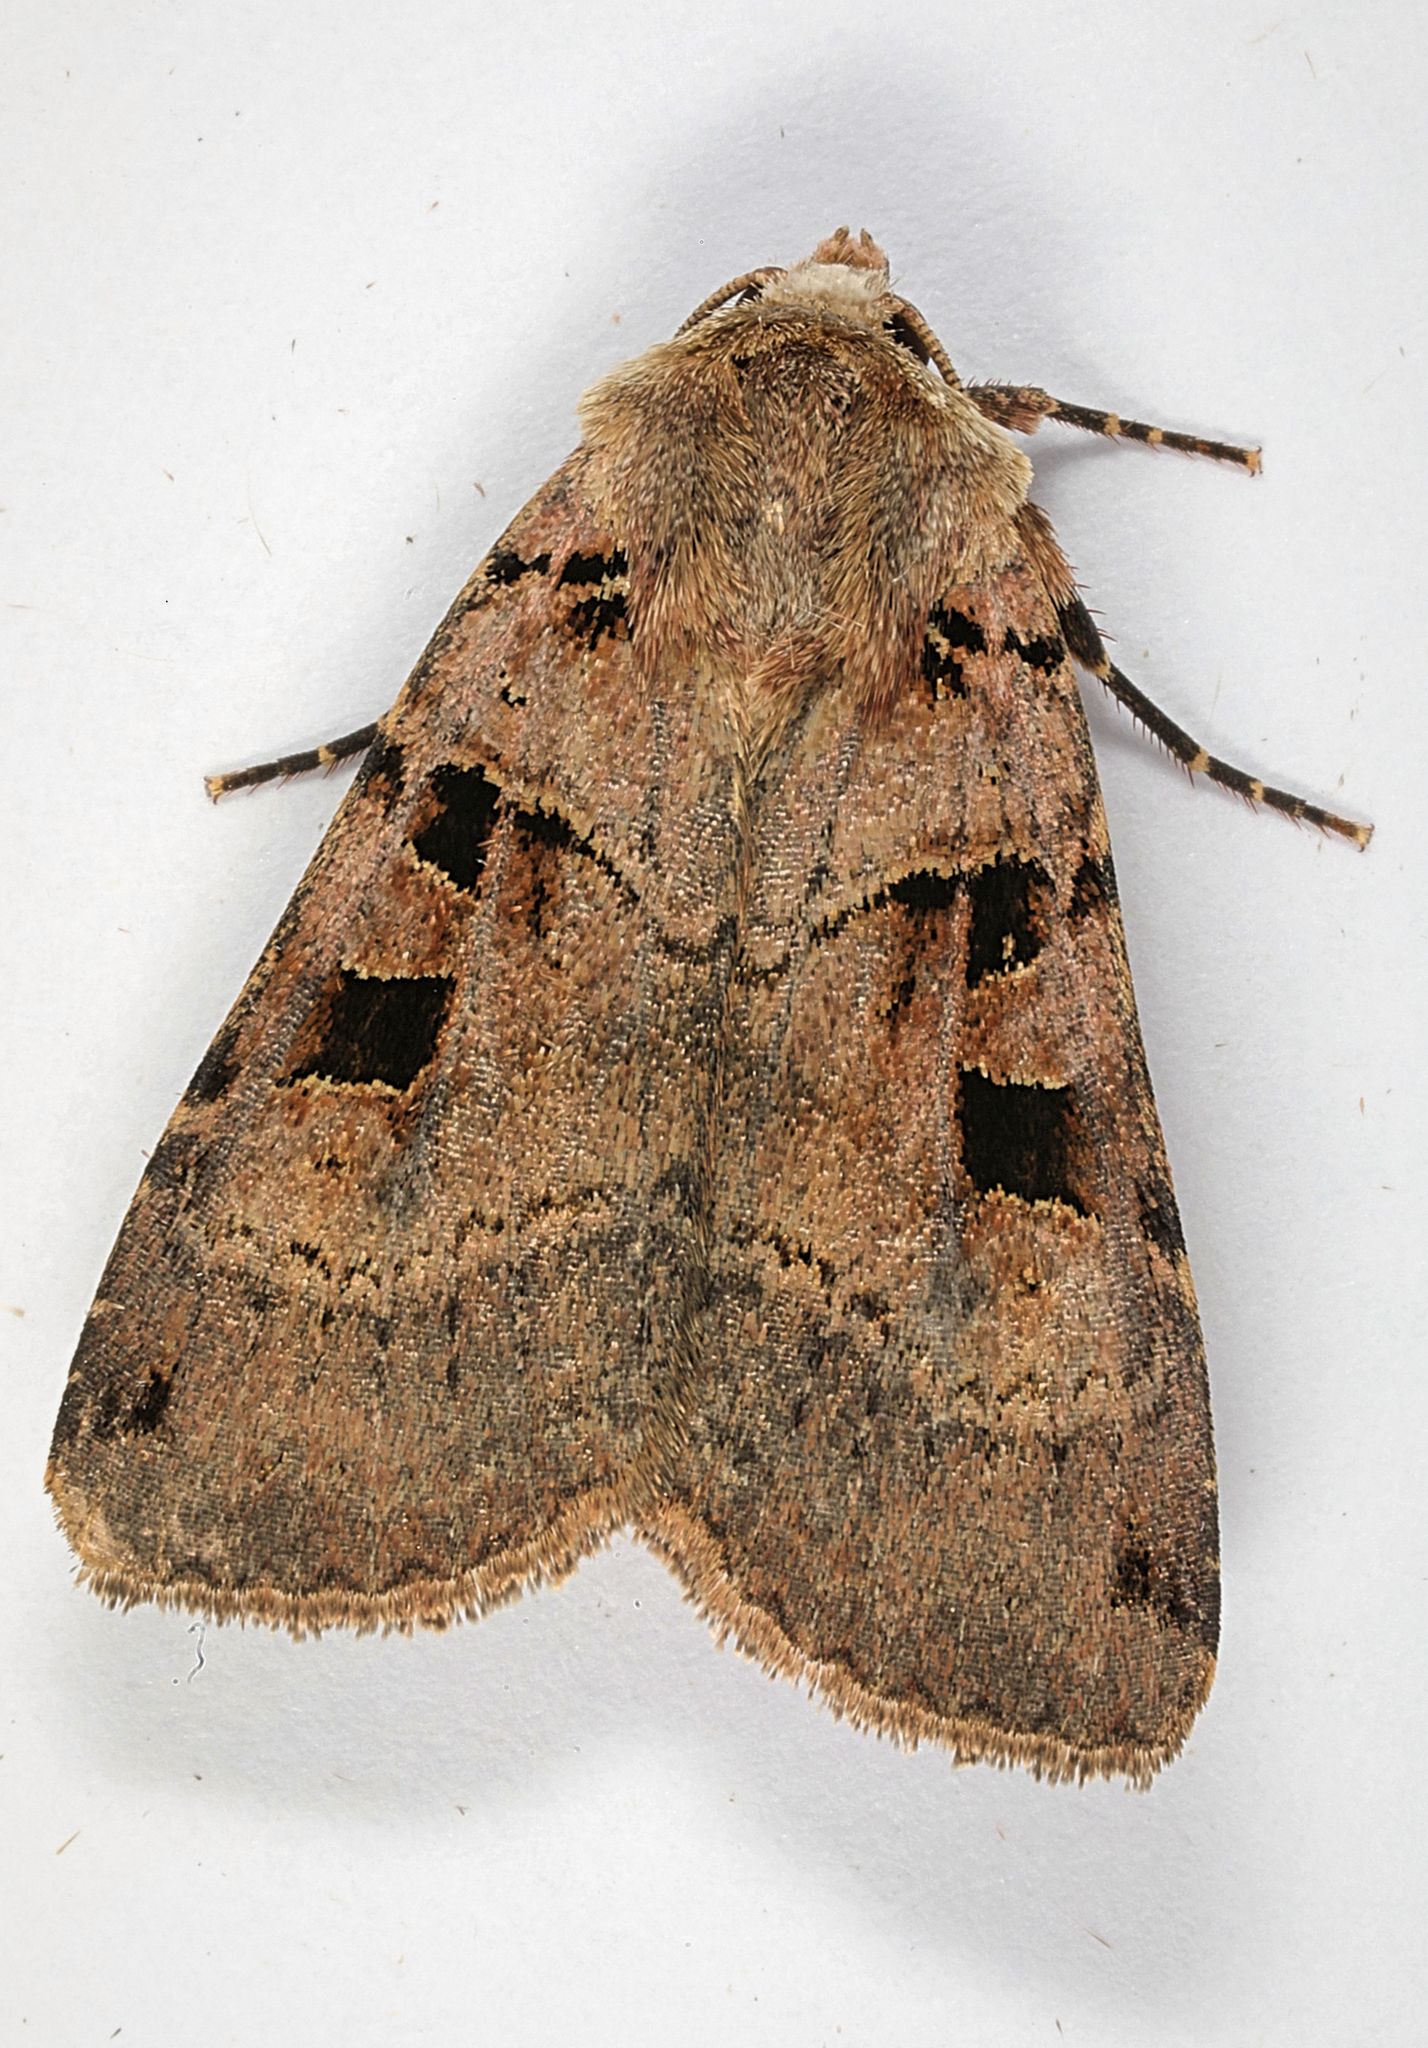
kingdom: Animalia
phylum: Arthropoda
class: Insecta
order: Lepidoptera
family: Noctuidae
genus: Xestia
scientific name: Xestia triangulum
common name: Double square-spot
